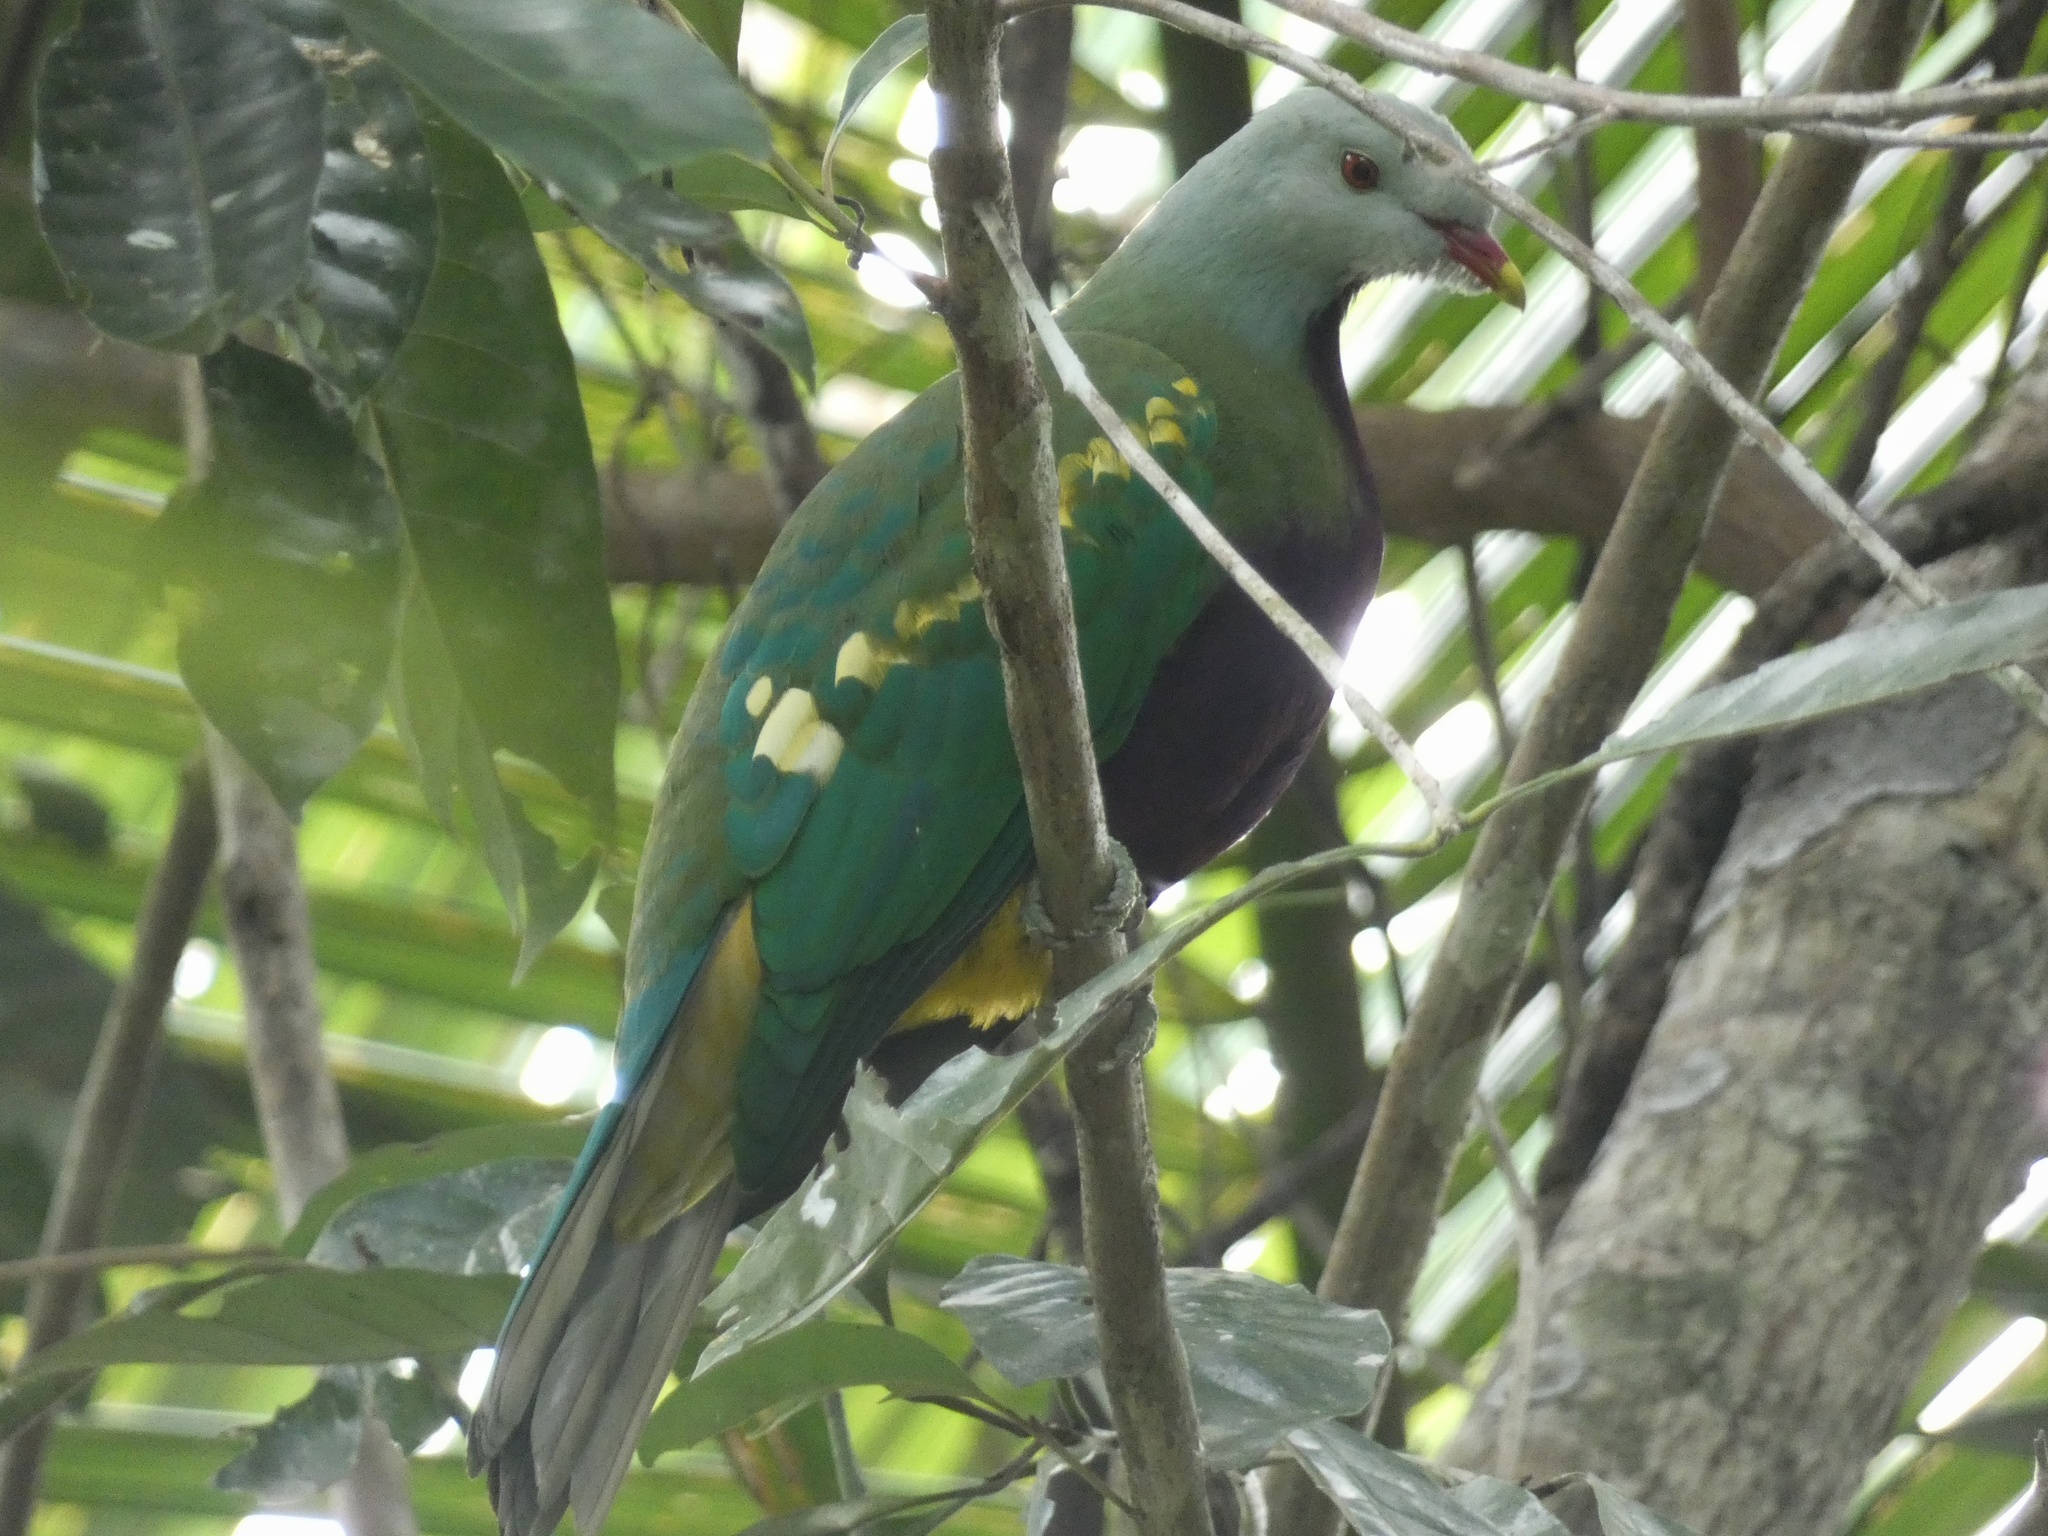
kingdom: Animalia
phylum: Chordata
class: Aves
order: Columbiformes
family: Columbidae
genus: Ptilinopus
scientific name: Ptilinopus magnificus
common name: Wompoo fruit dove
